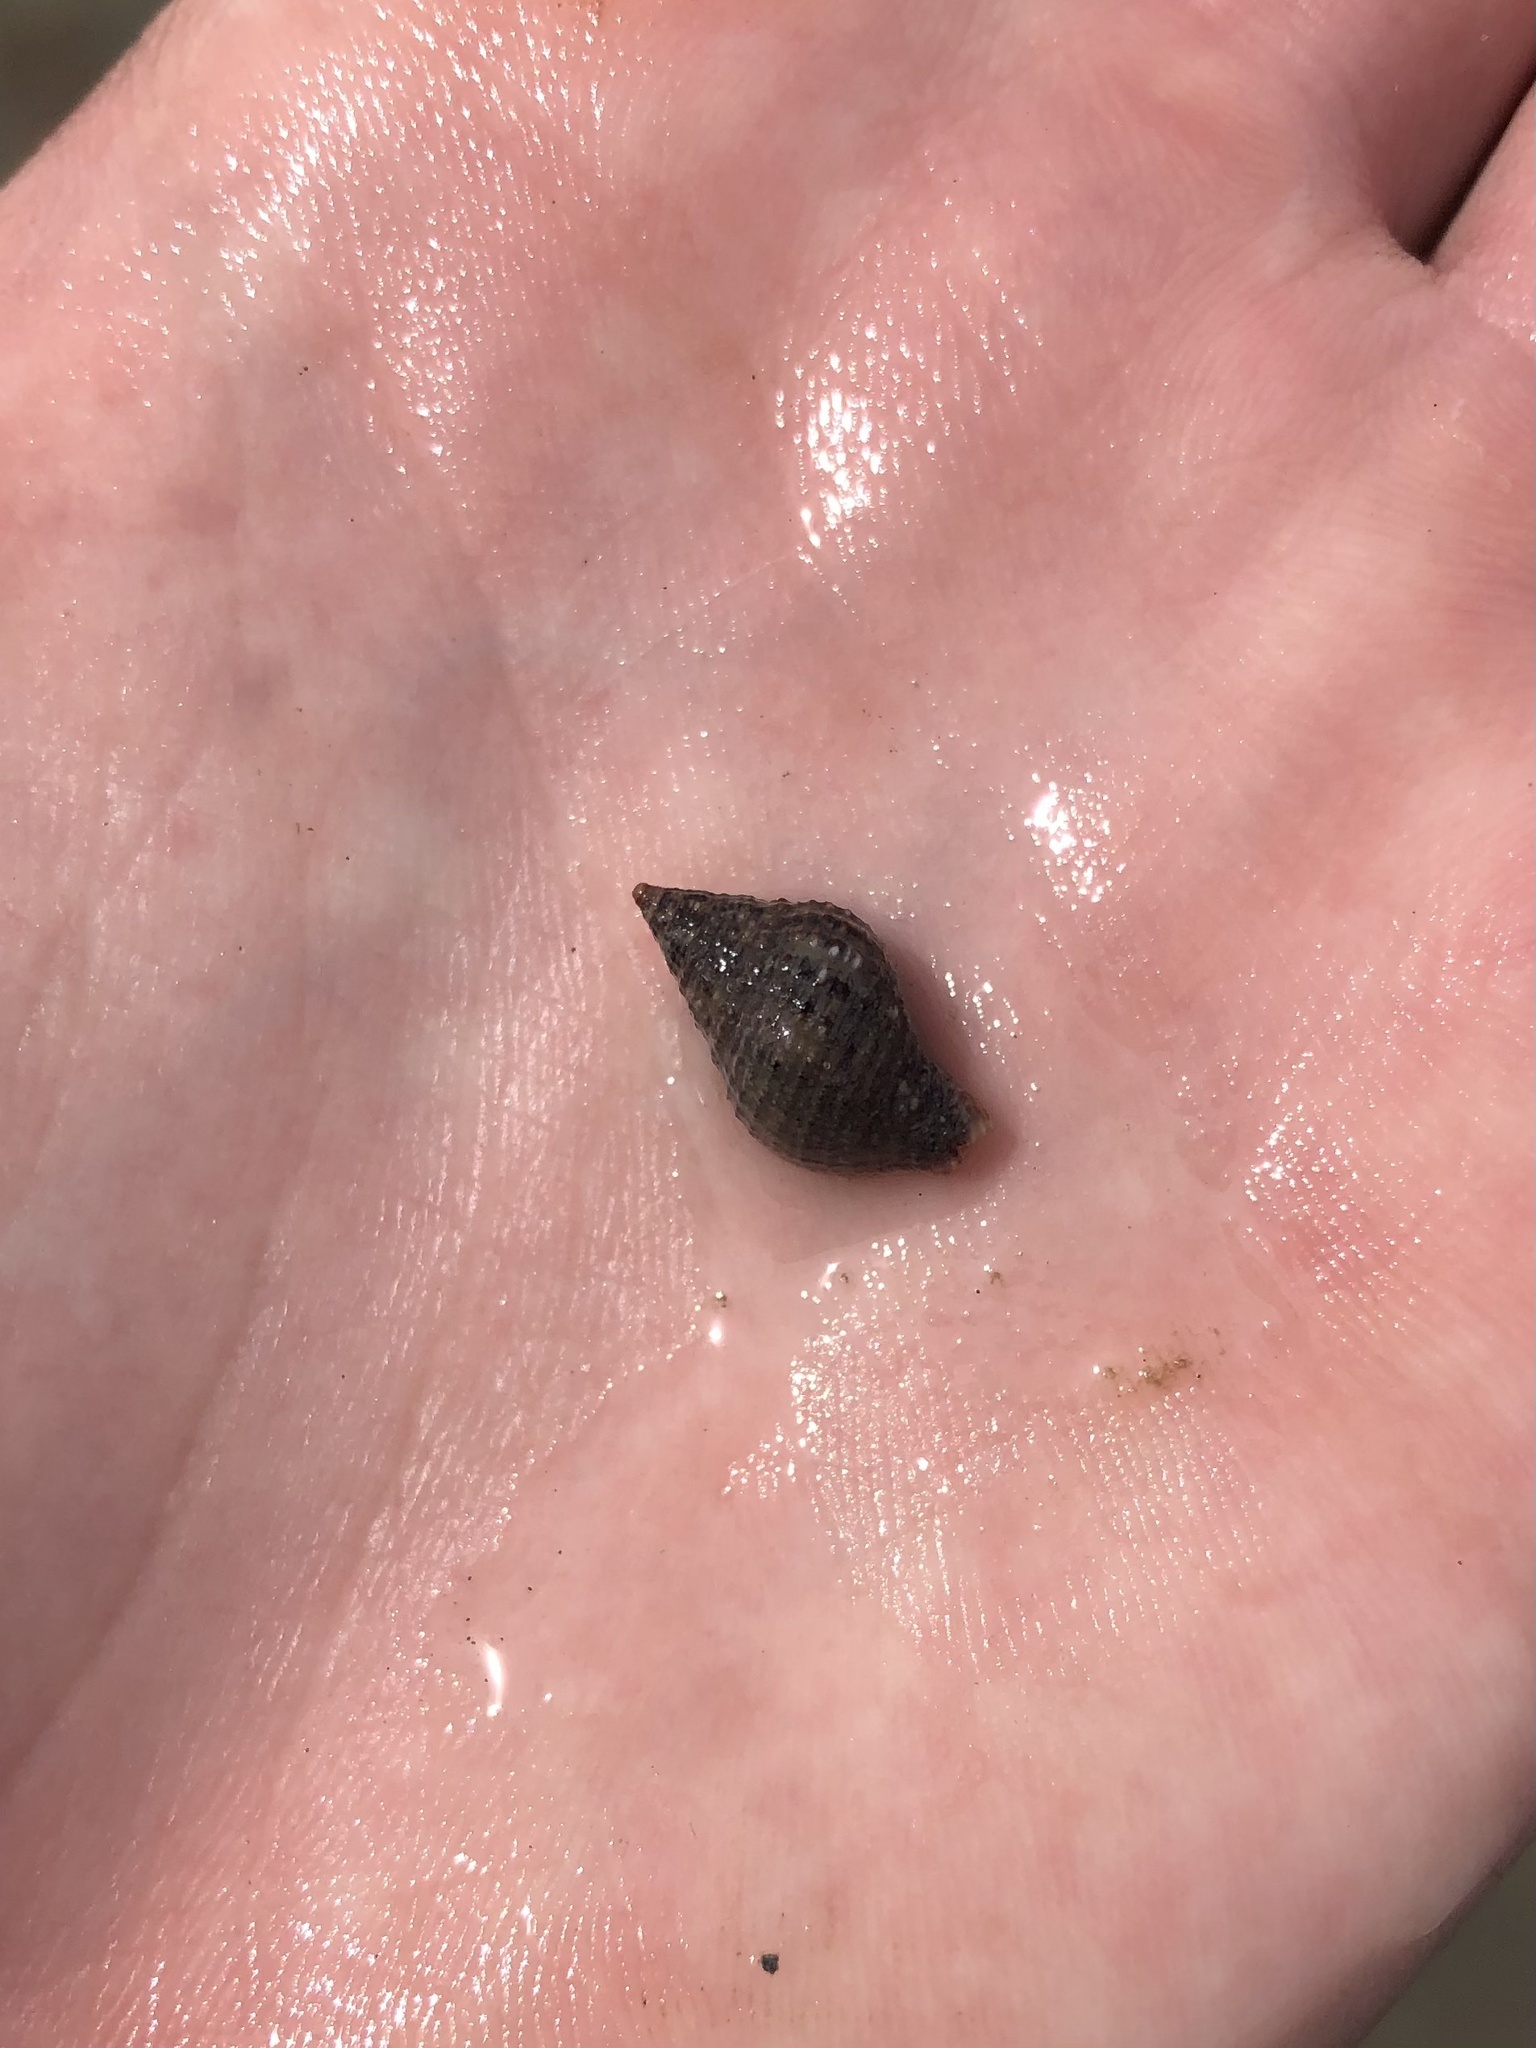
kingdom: Animalia
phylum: Mollusca
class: Gastropoda
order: Neogastropoda
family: Pisaniidae
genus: Gemophos
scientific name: Gemophos tinctus
